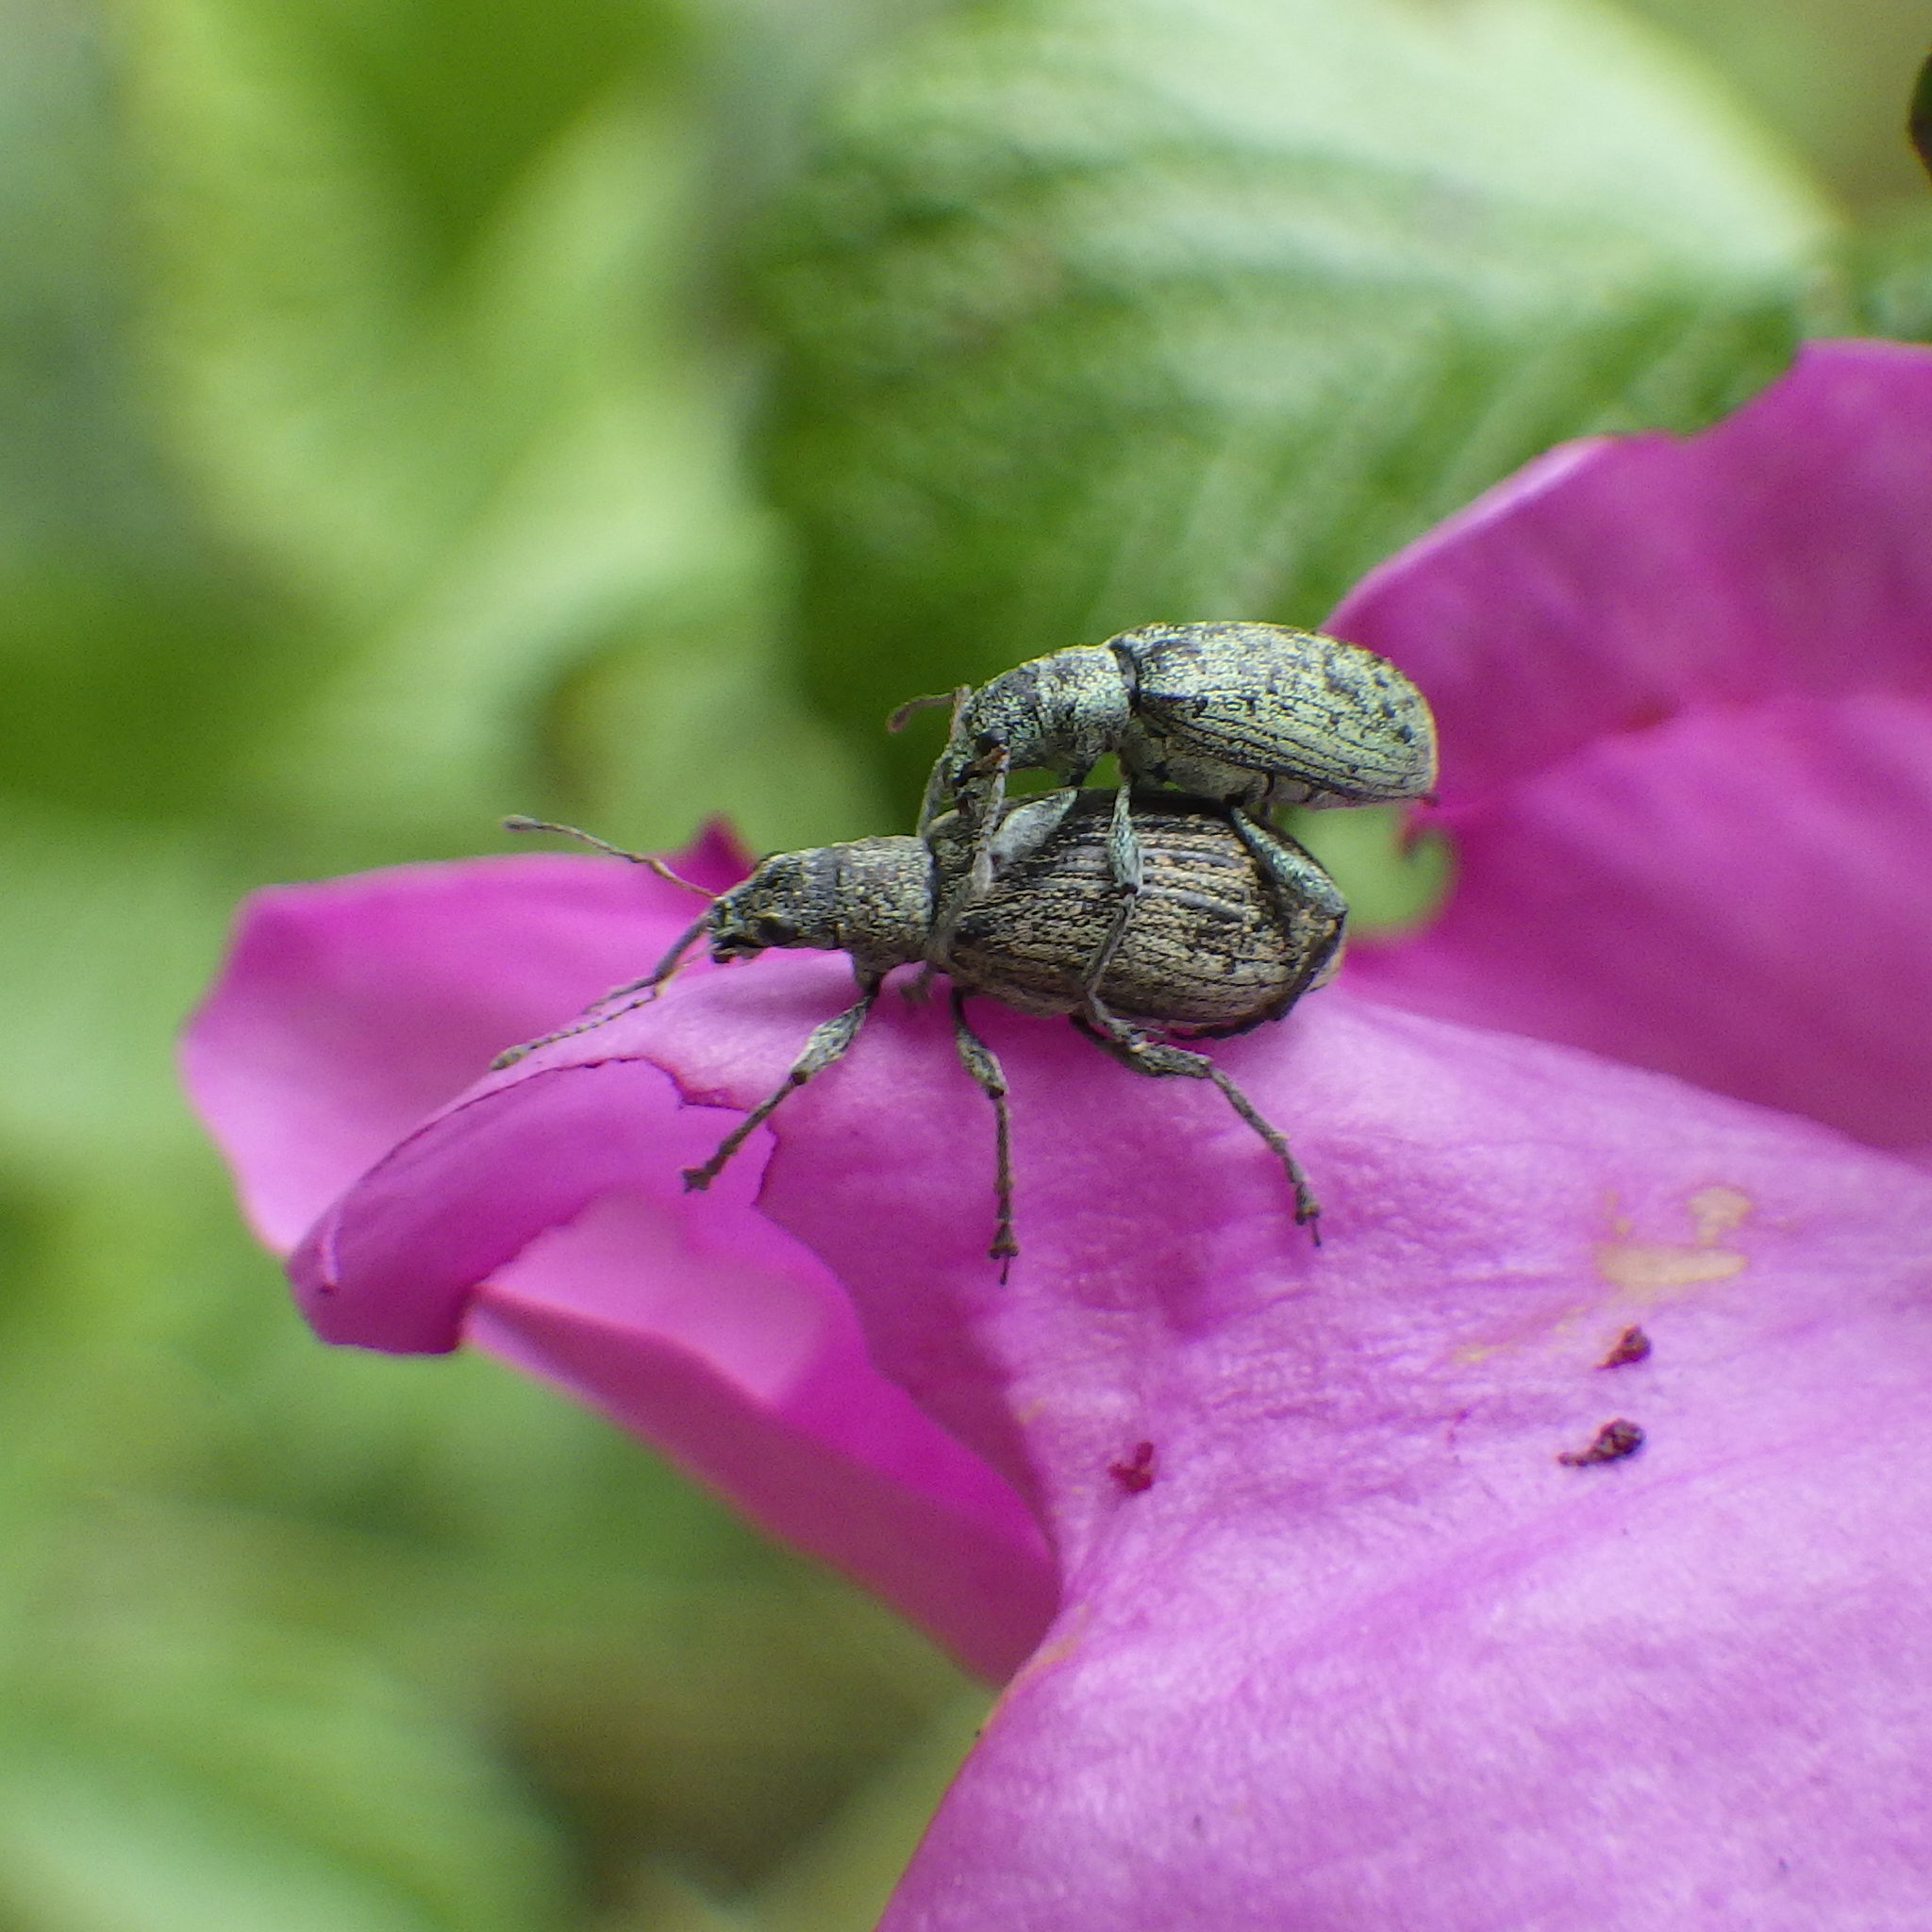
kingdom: Animalia
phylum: Arthropoda
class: Insecta
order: Coleoptera
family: Curculionidae
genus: Polydrusus
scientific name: Polydrusus cervinus
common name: Weevil
